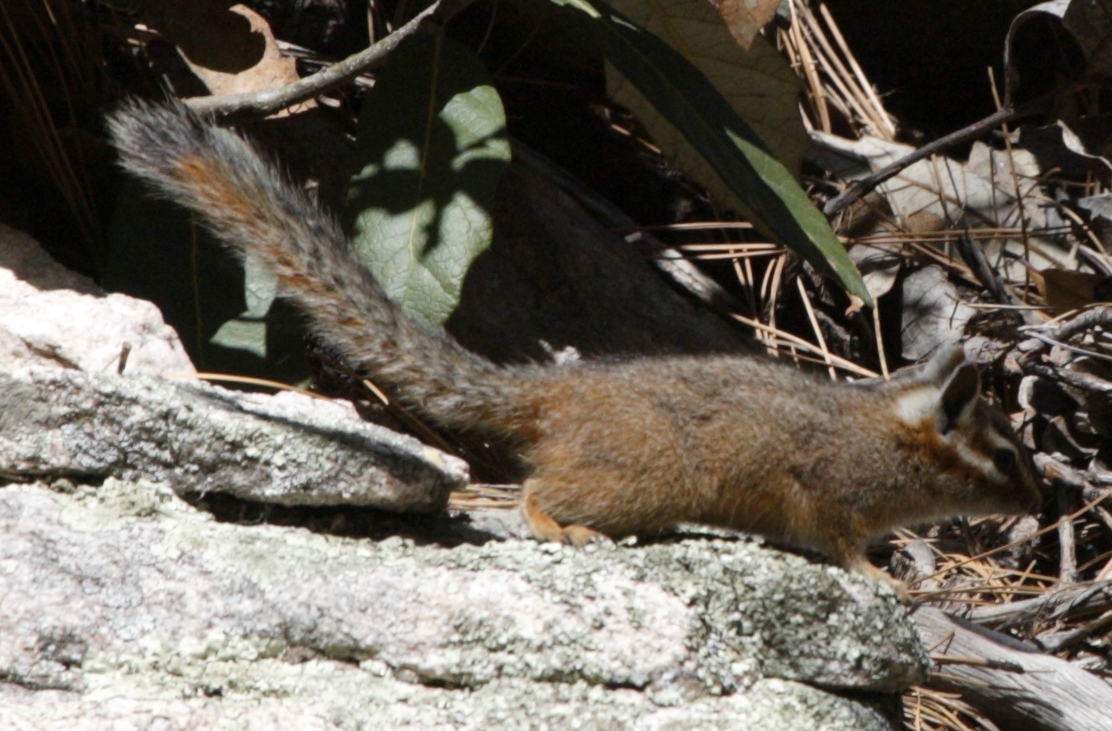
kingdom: Animalia
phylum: Chordata
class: Mammalia
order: Rodentia
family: Sciuridae
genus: Tamias
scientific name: Tamias dorsalis
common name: Cliff chipmunk
